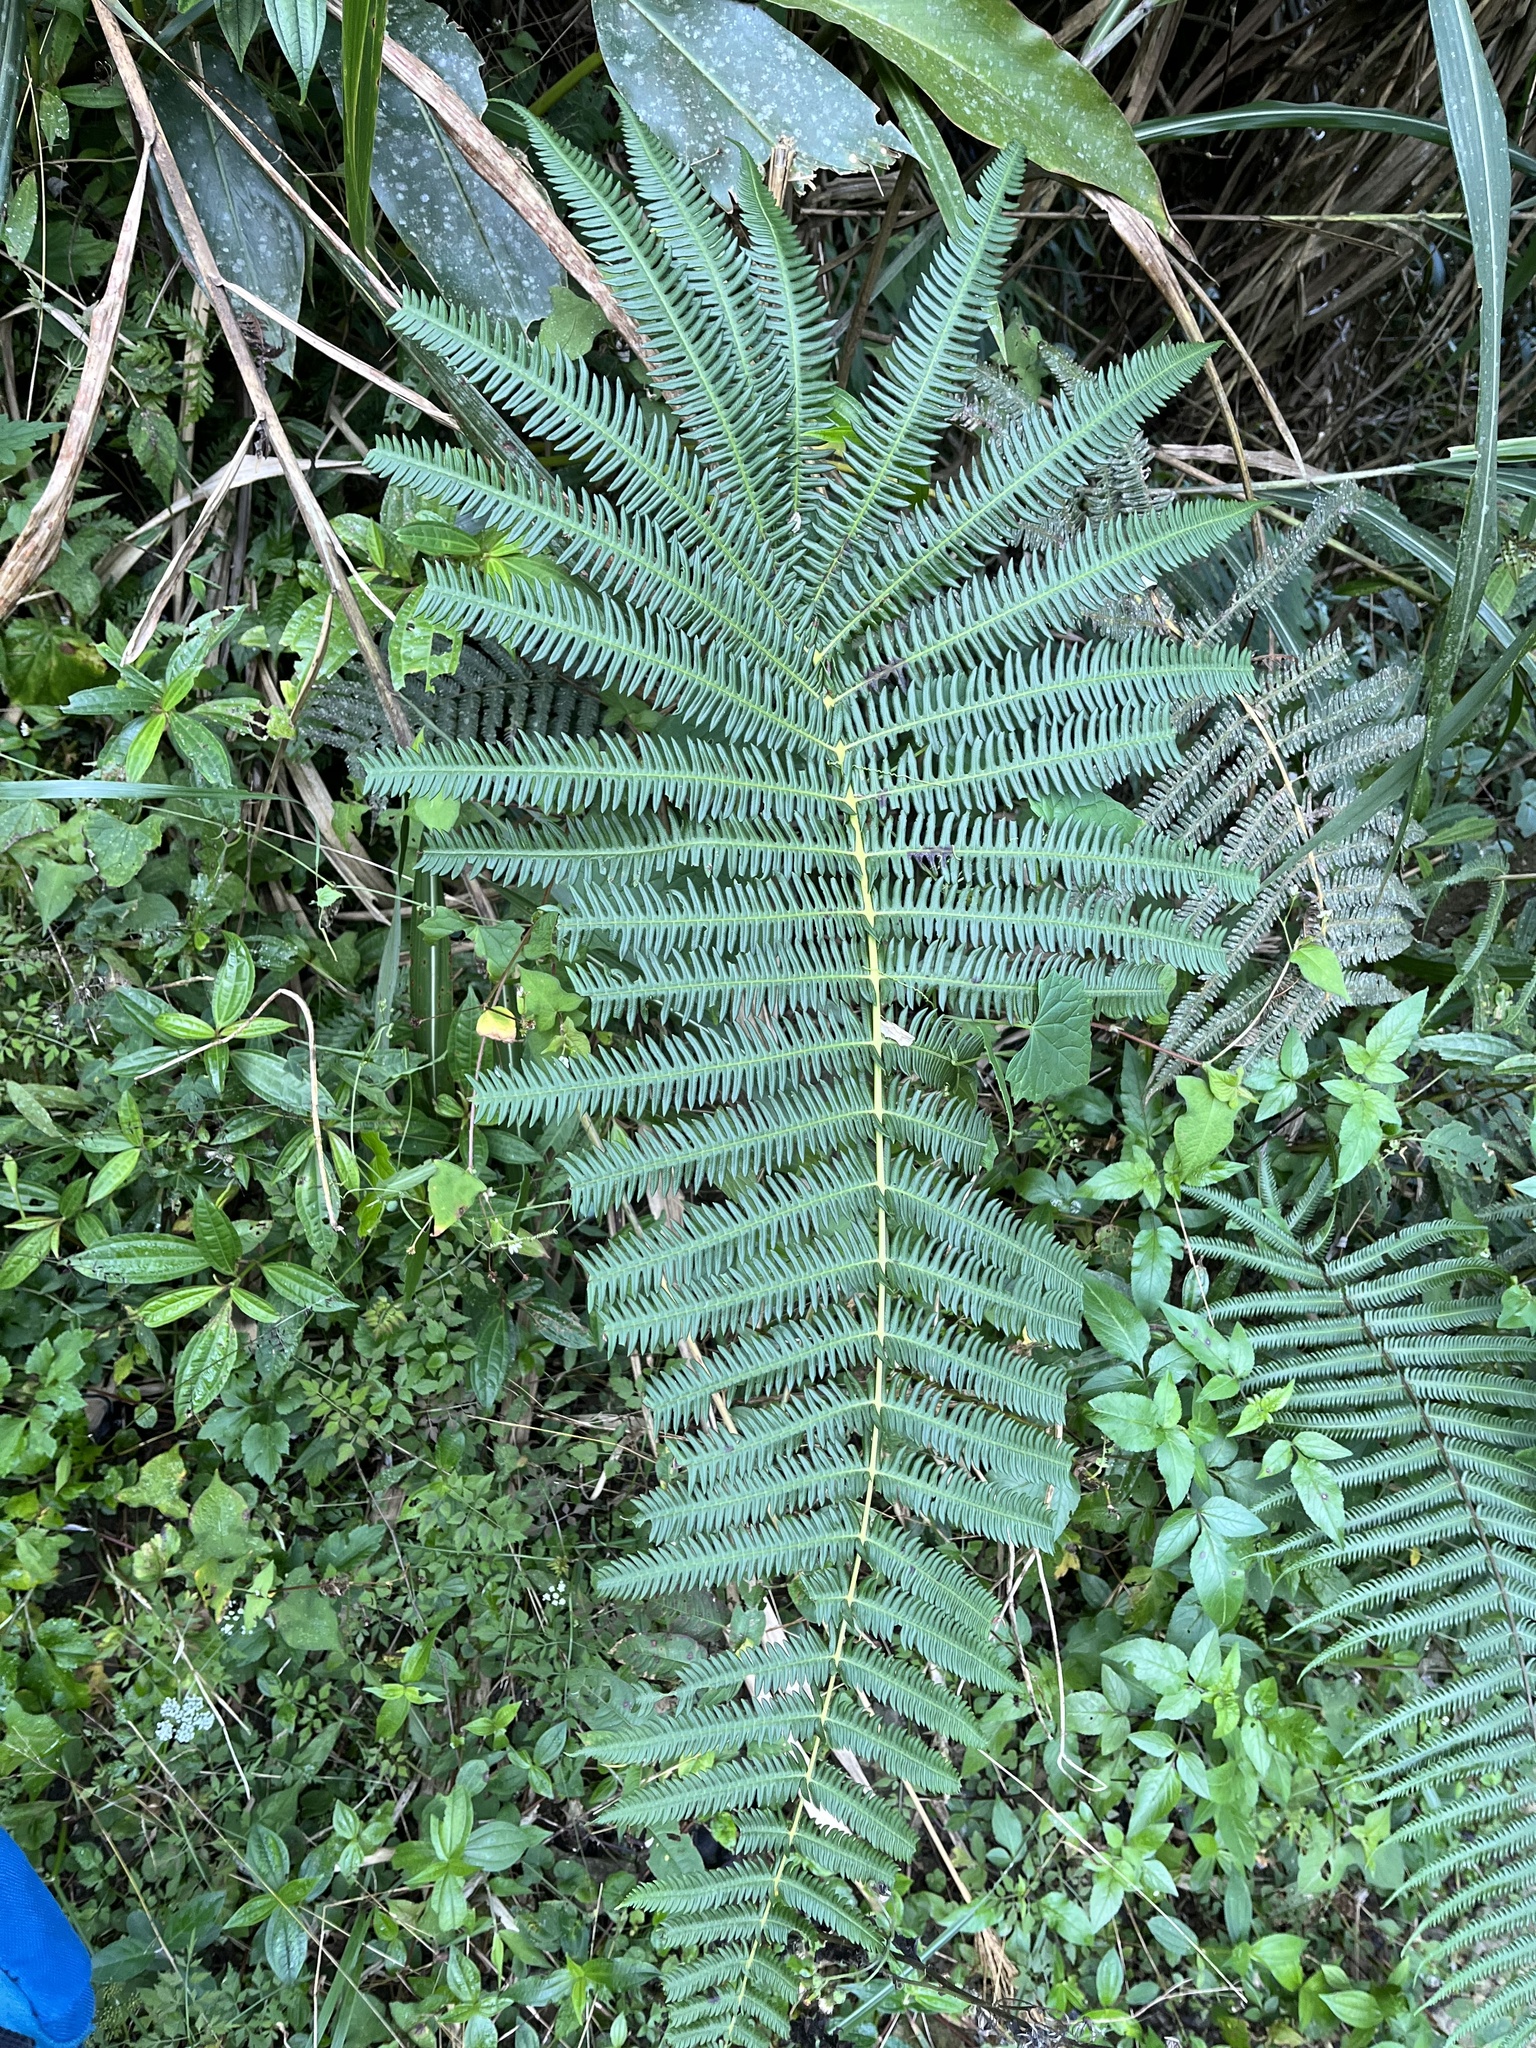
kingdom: Plantae
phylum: Tracheophyta
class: Polypodiopsida
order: Polypodiales
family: Thelypteridaceae
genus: Glaphyropteridopsis
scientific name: Glaphyropteridopsis erubescens
